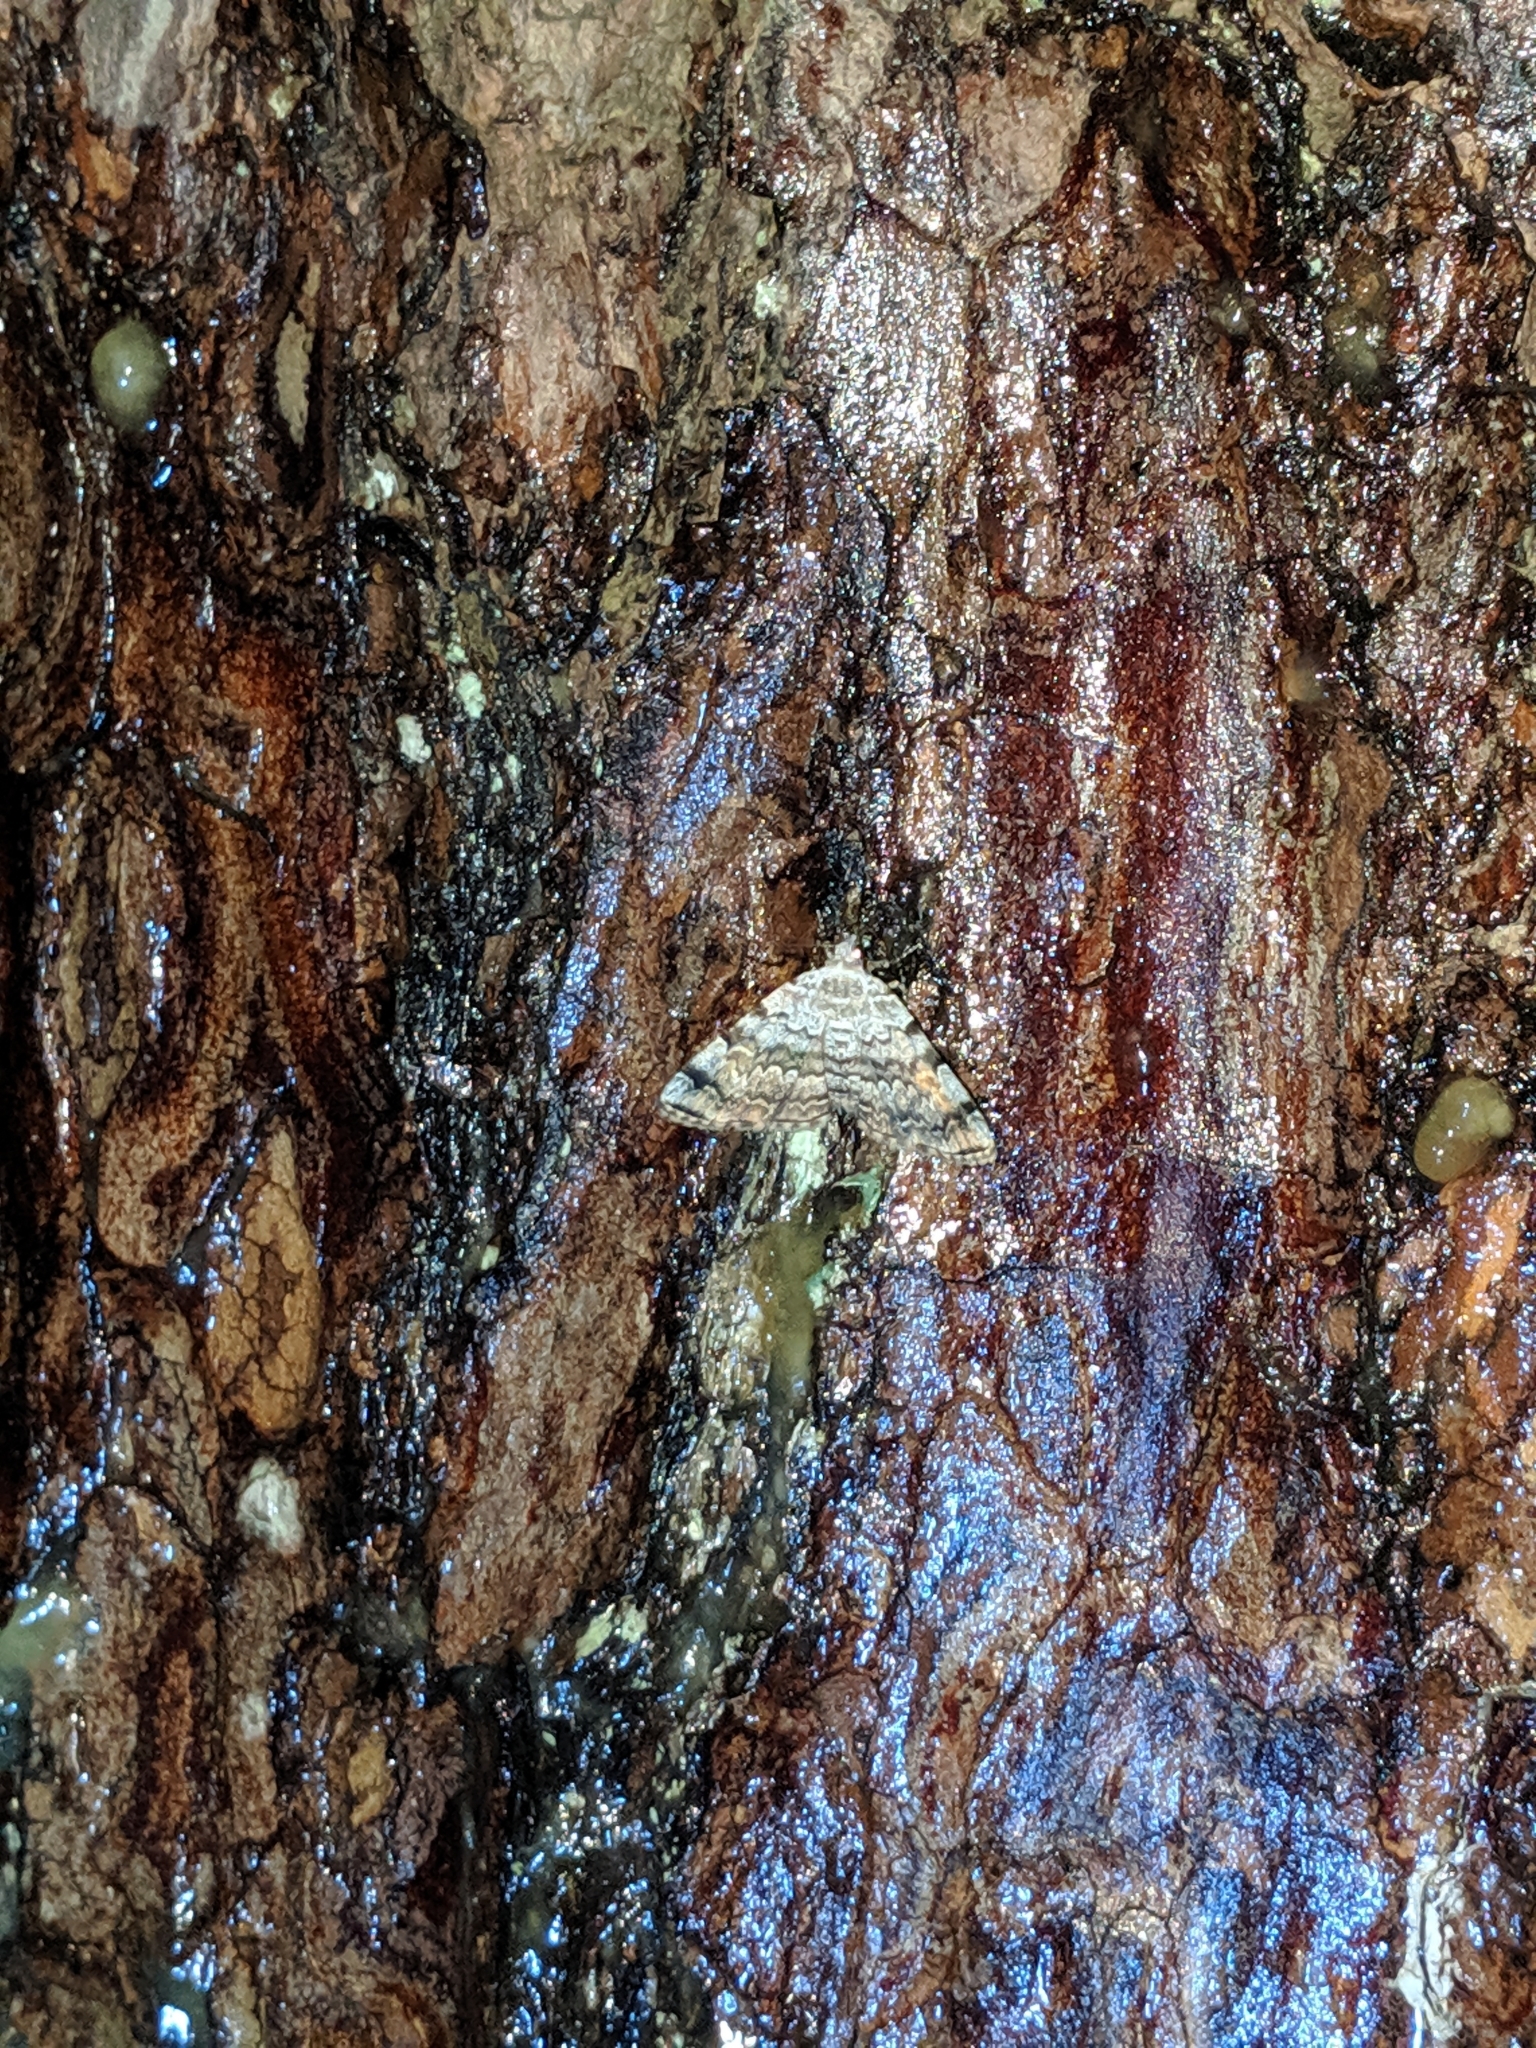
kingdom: Animalia
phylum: Arthropoda
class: Insecta
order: Lepidoptera
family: Erebidae
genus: Idia
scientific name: Idia americalis
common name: American idia moth
